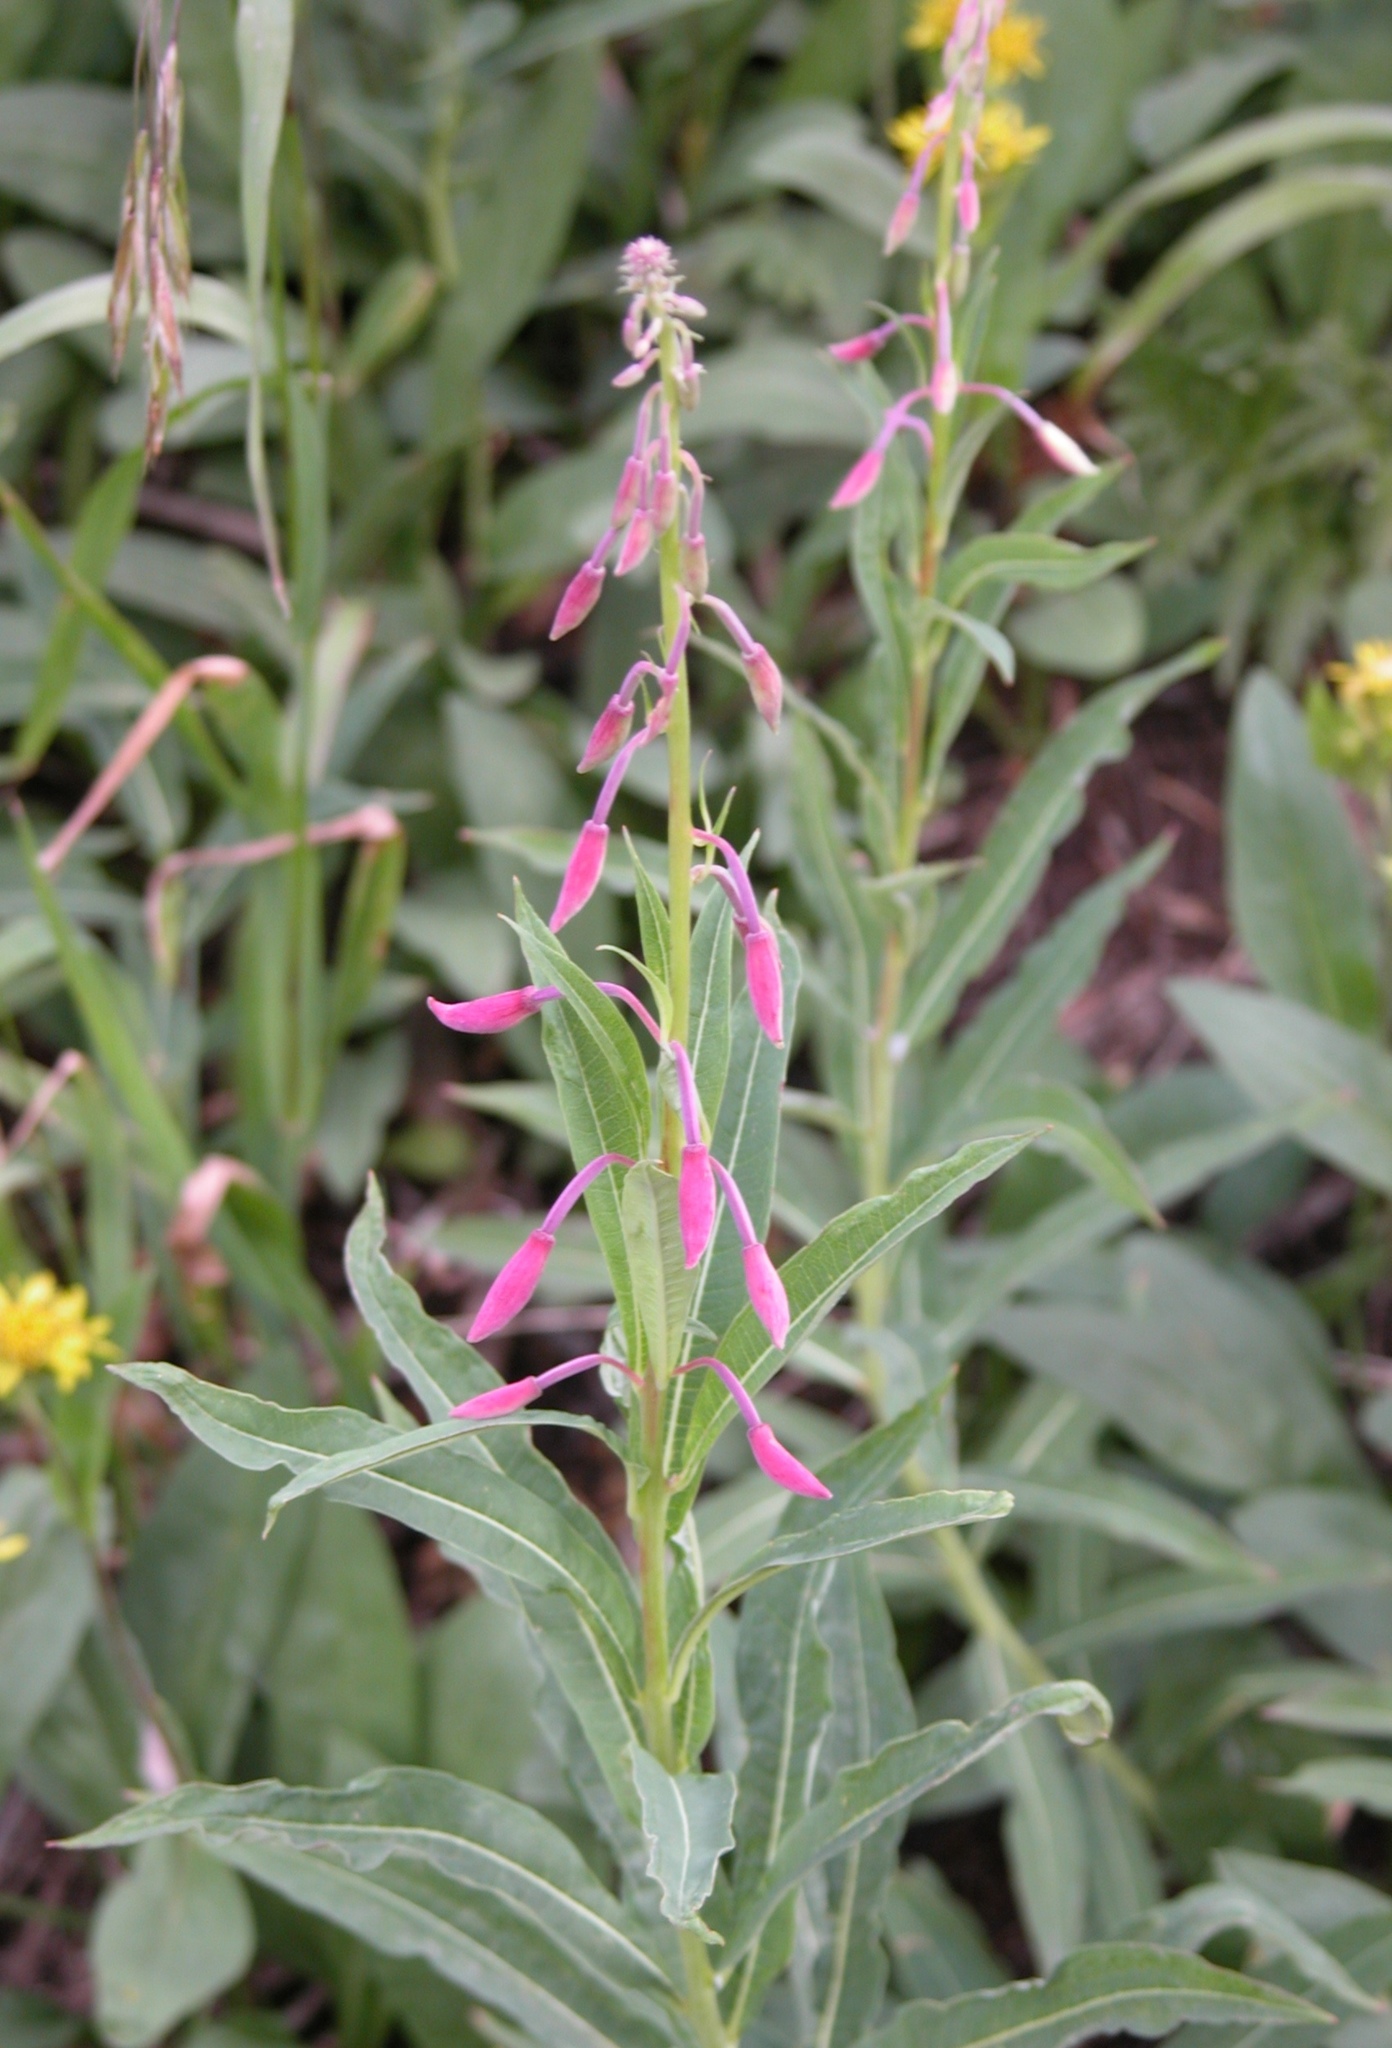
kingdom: Plantae
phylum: Tracheophyta
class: Magnoliopsida
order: Myrtales
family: Onagraceae
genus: Chamaenerion
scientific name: Chamaenerion angustifolium
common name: Fireweed
